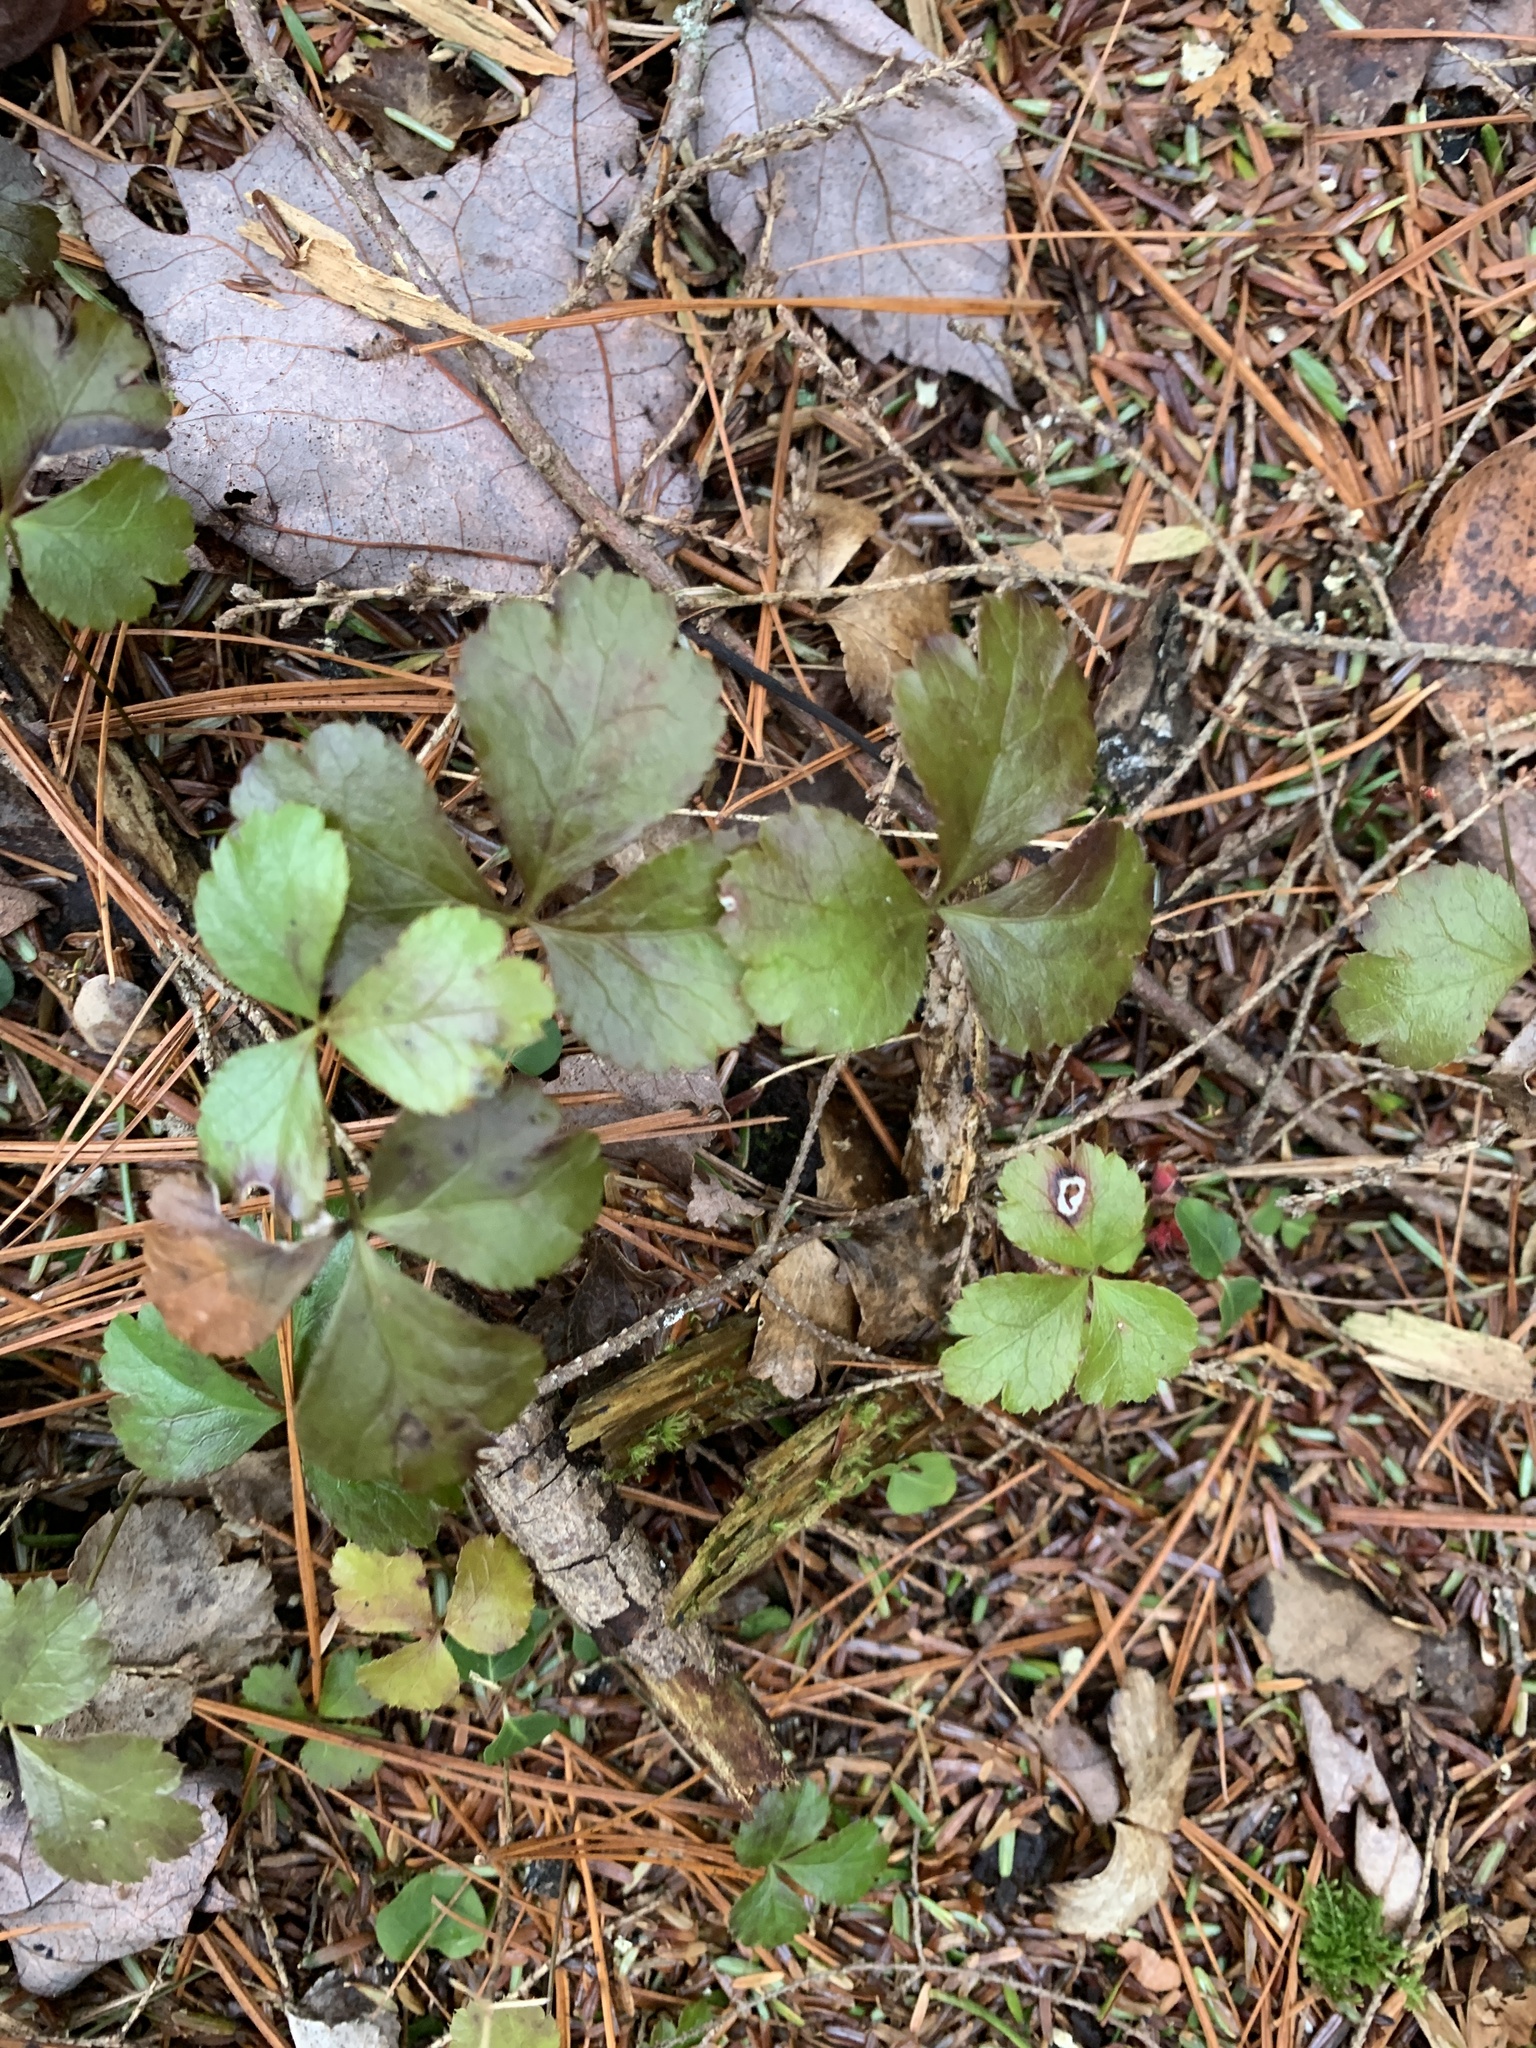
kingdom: Plantae
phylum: Tracheophyta
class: Magnoliopsida
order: Ranunculales
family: Ranunculaceae
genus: Coptis
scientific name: Coptis trifolia
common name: Canker-root
